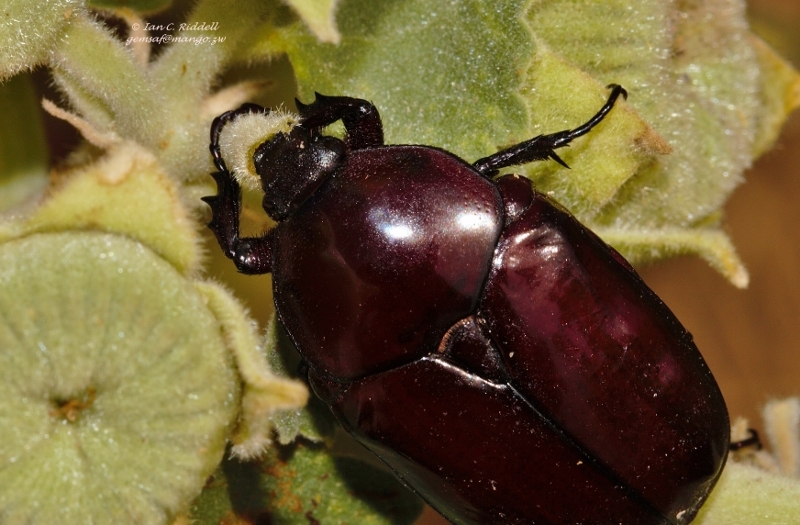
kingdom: Animalia
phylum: Arthropoda
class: Insecta
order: Coleoptera
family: Scarabaeidae
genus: Diplognatha
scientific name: Diplognatha gagates
